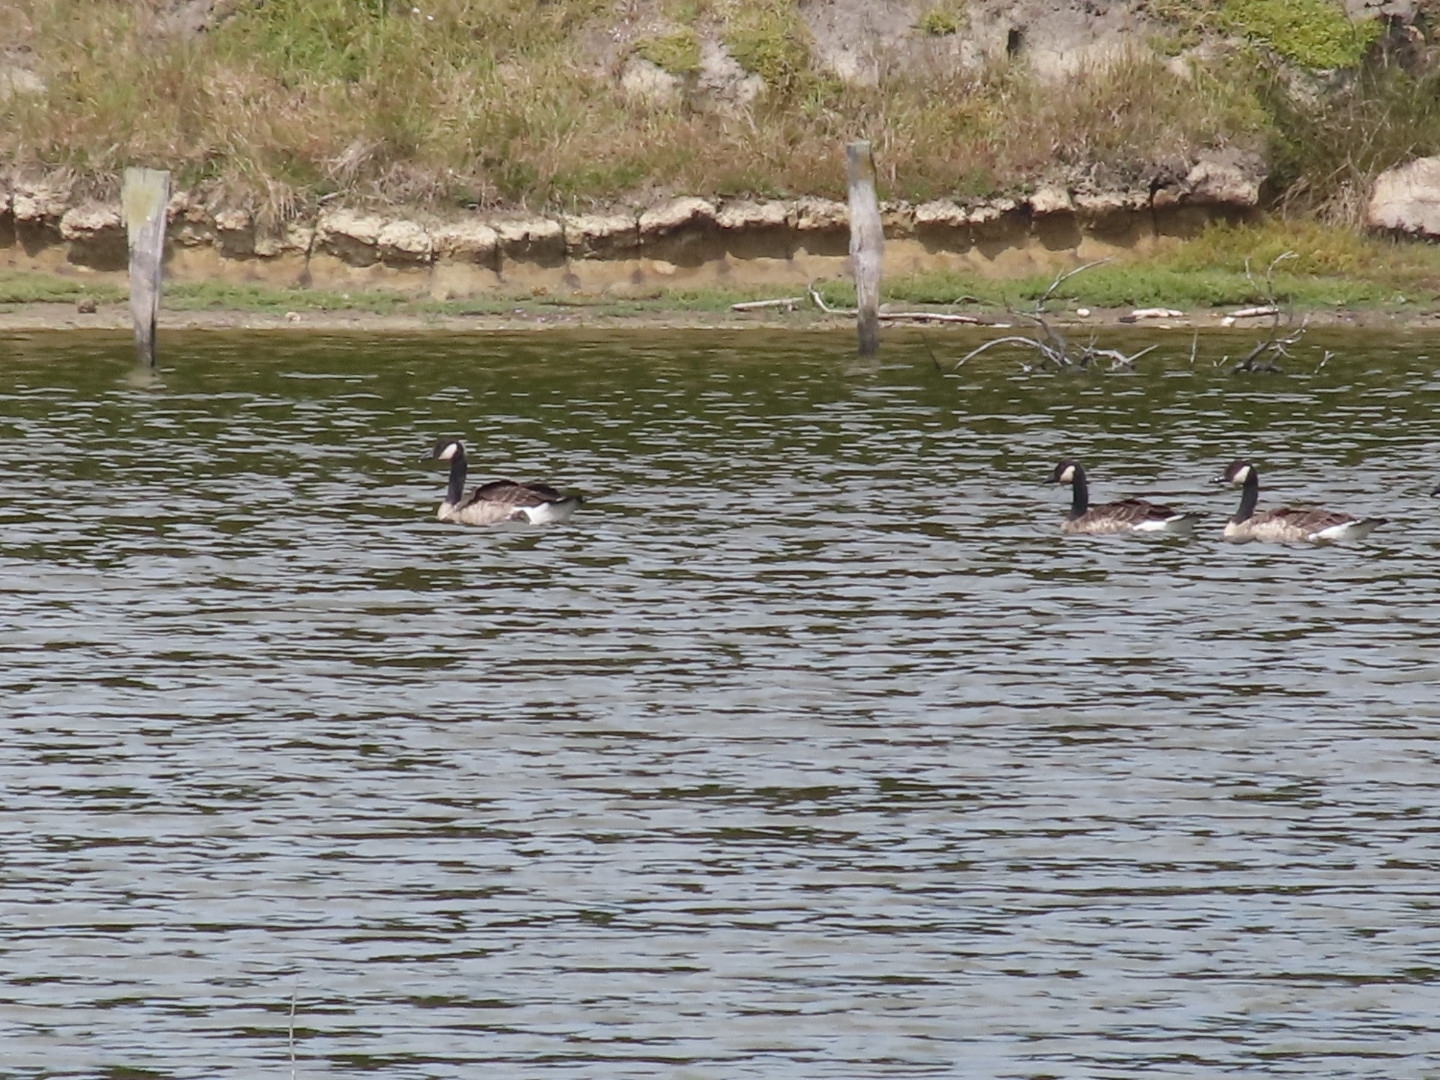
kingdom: Animalia
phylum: Chordata
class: Aves
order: Anseriformes
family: Anatidae
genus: Branta
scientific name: Branta canadensis
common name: Canada goose
